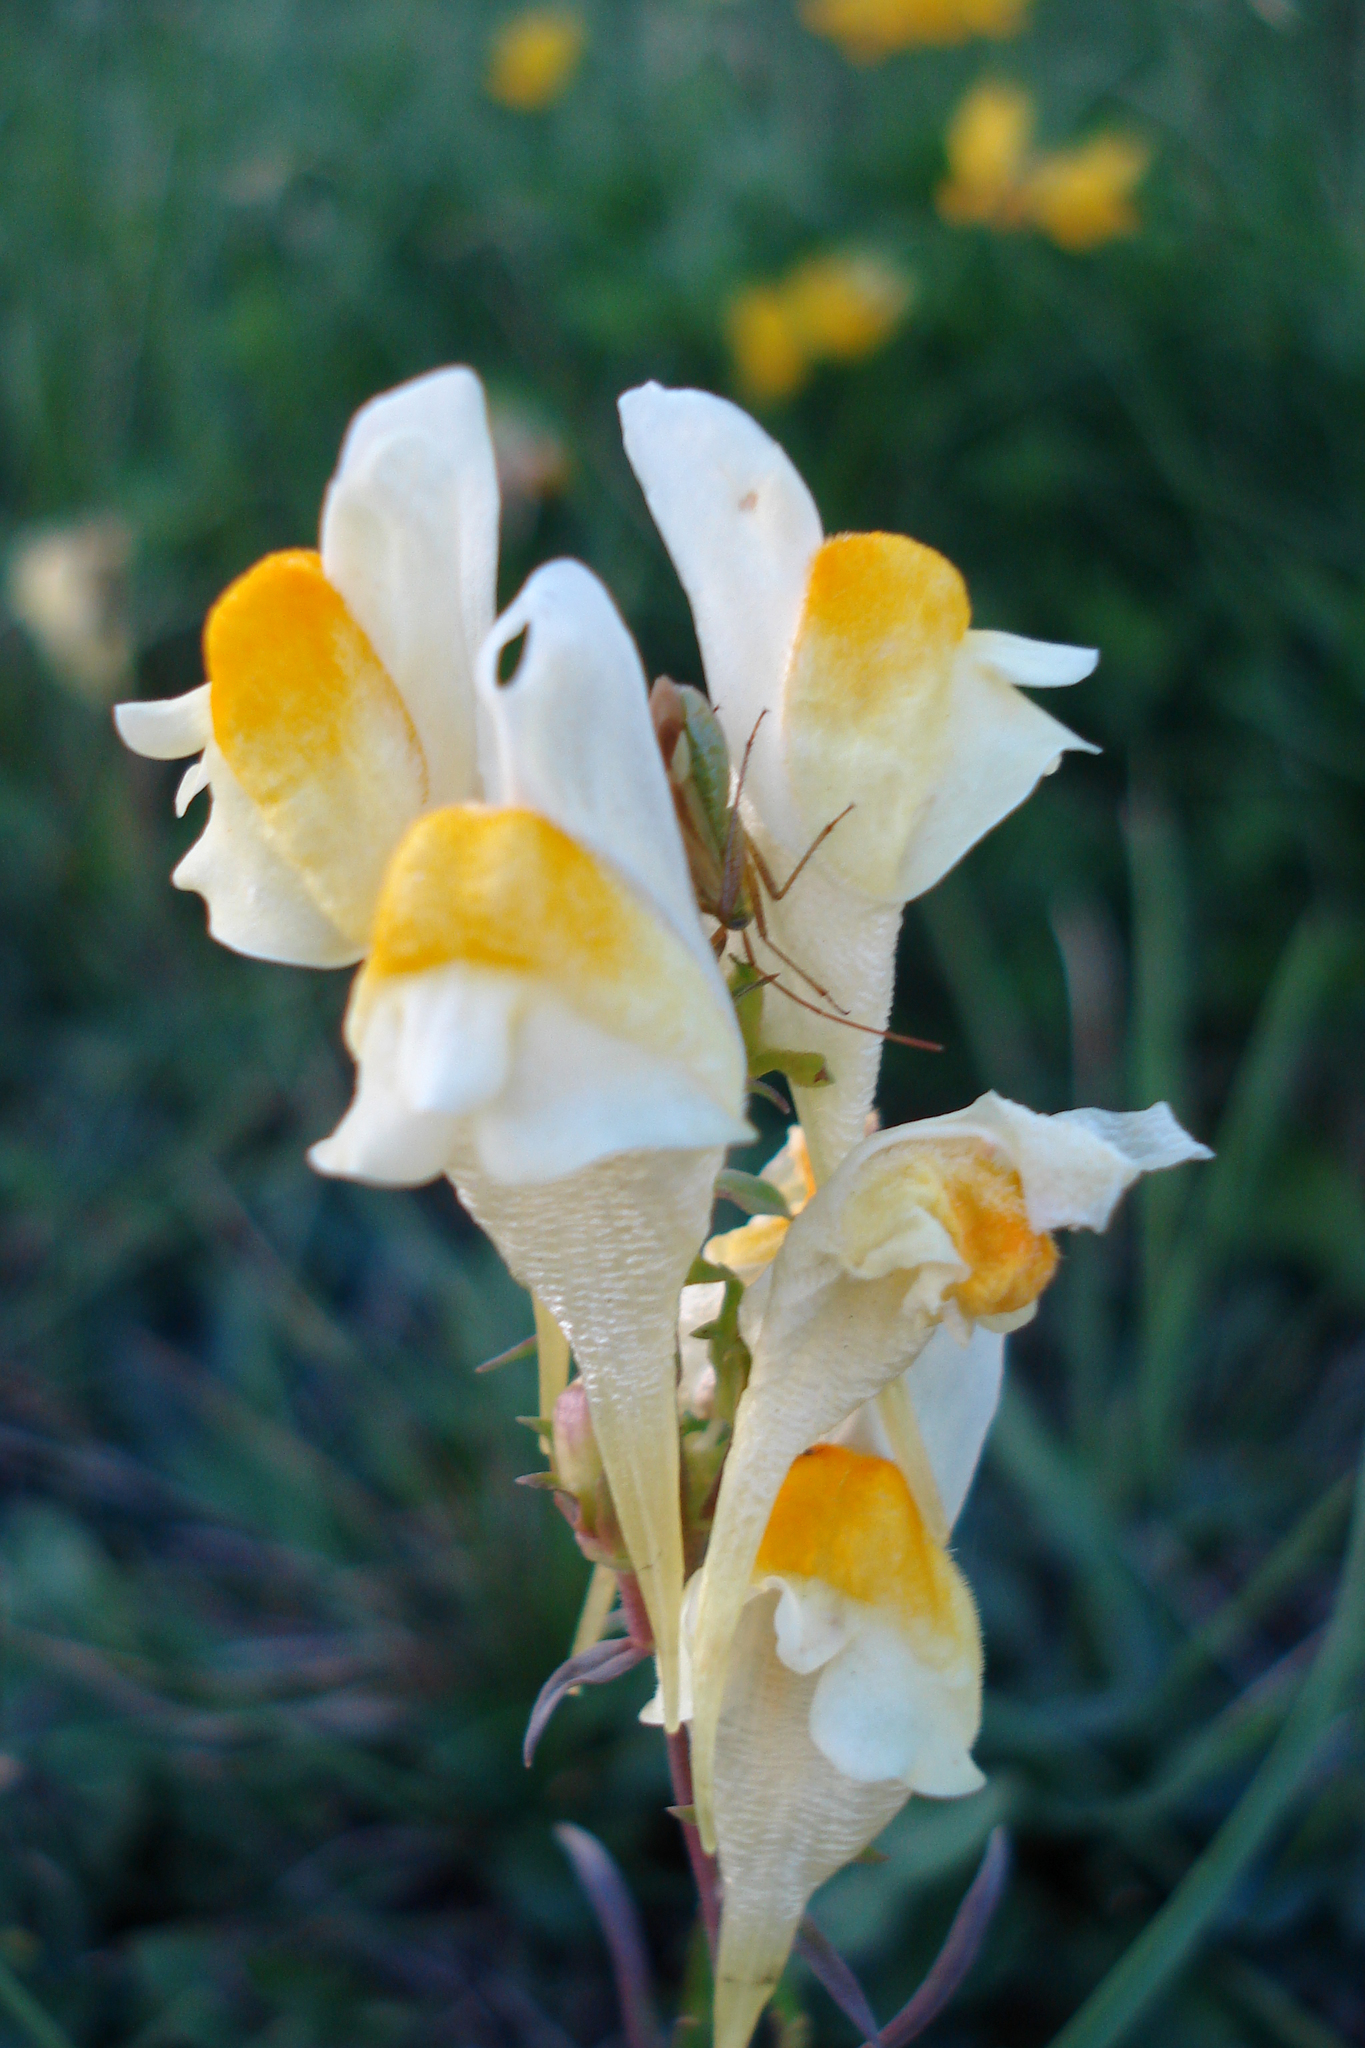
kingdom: Plantae
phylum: Tracheophyta
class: Magnoliopsida
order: Lamiales
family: Plantaginaceae
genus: Linaria
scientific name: Linaria vulgaris
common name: Butter and eggs
